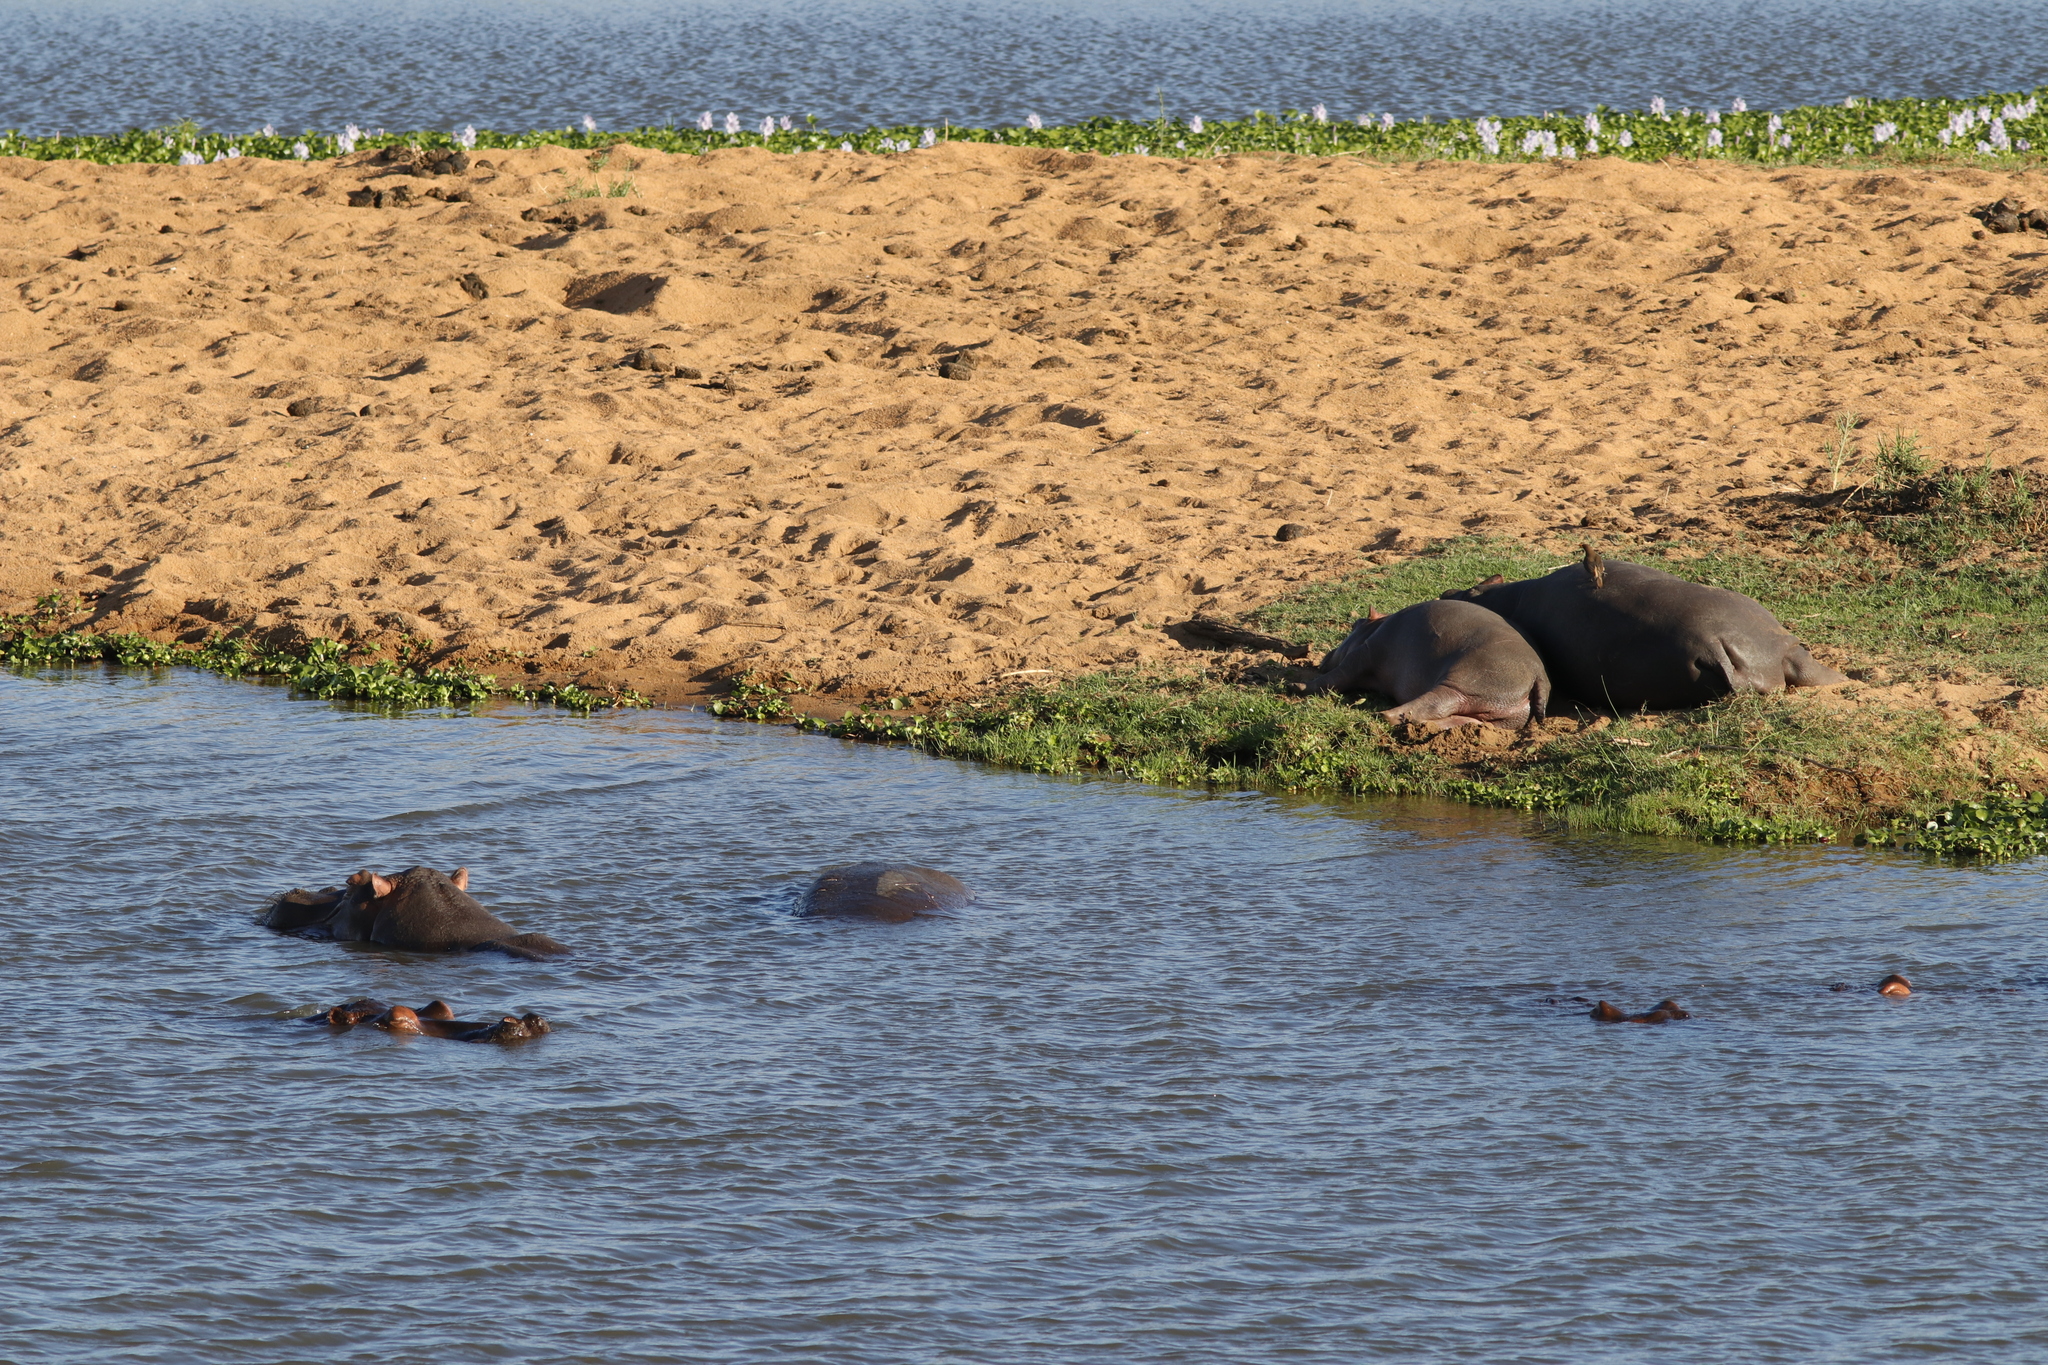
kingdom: Animalia
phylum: Chordata
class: Mammalia
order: Artiodactyla
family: Hippopotamidae
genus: Hippopotamus
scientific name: Hippopotamus amphibius
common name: Common hippopotamus
